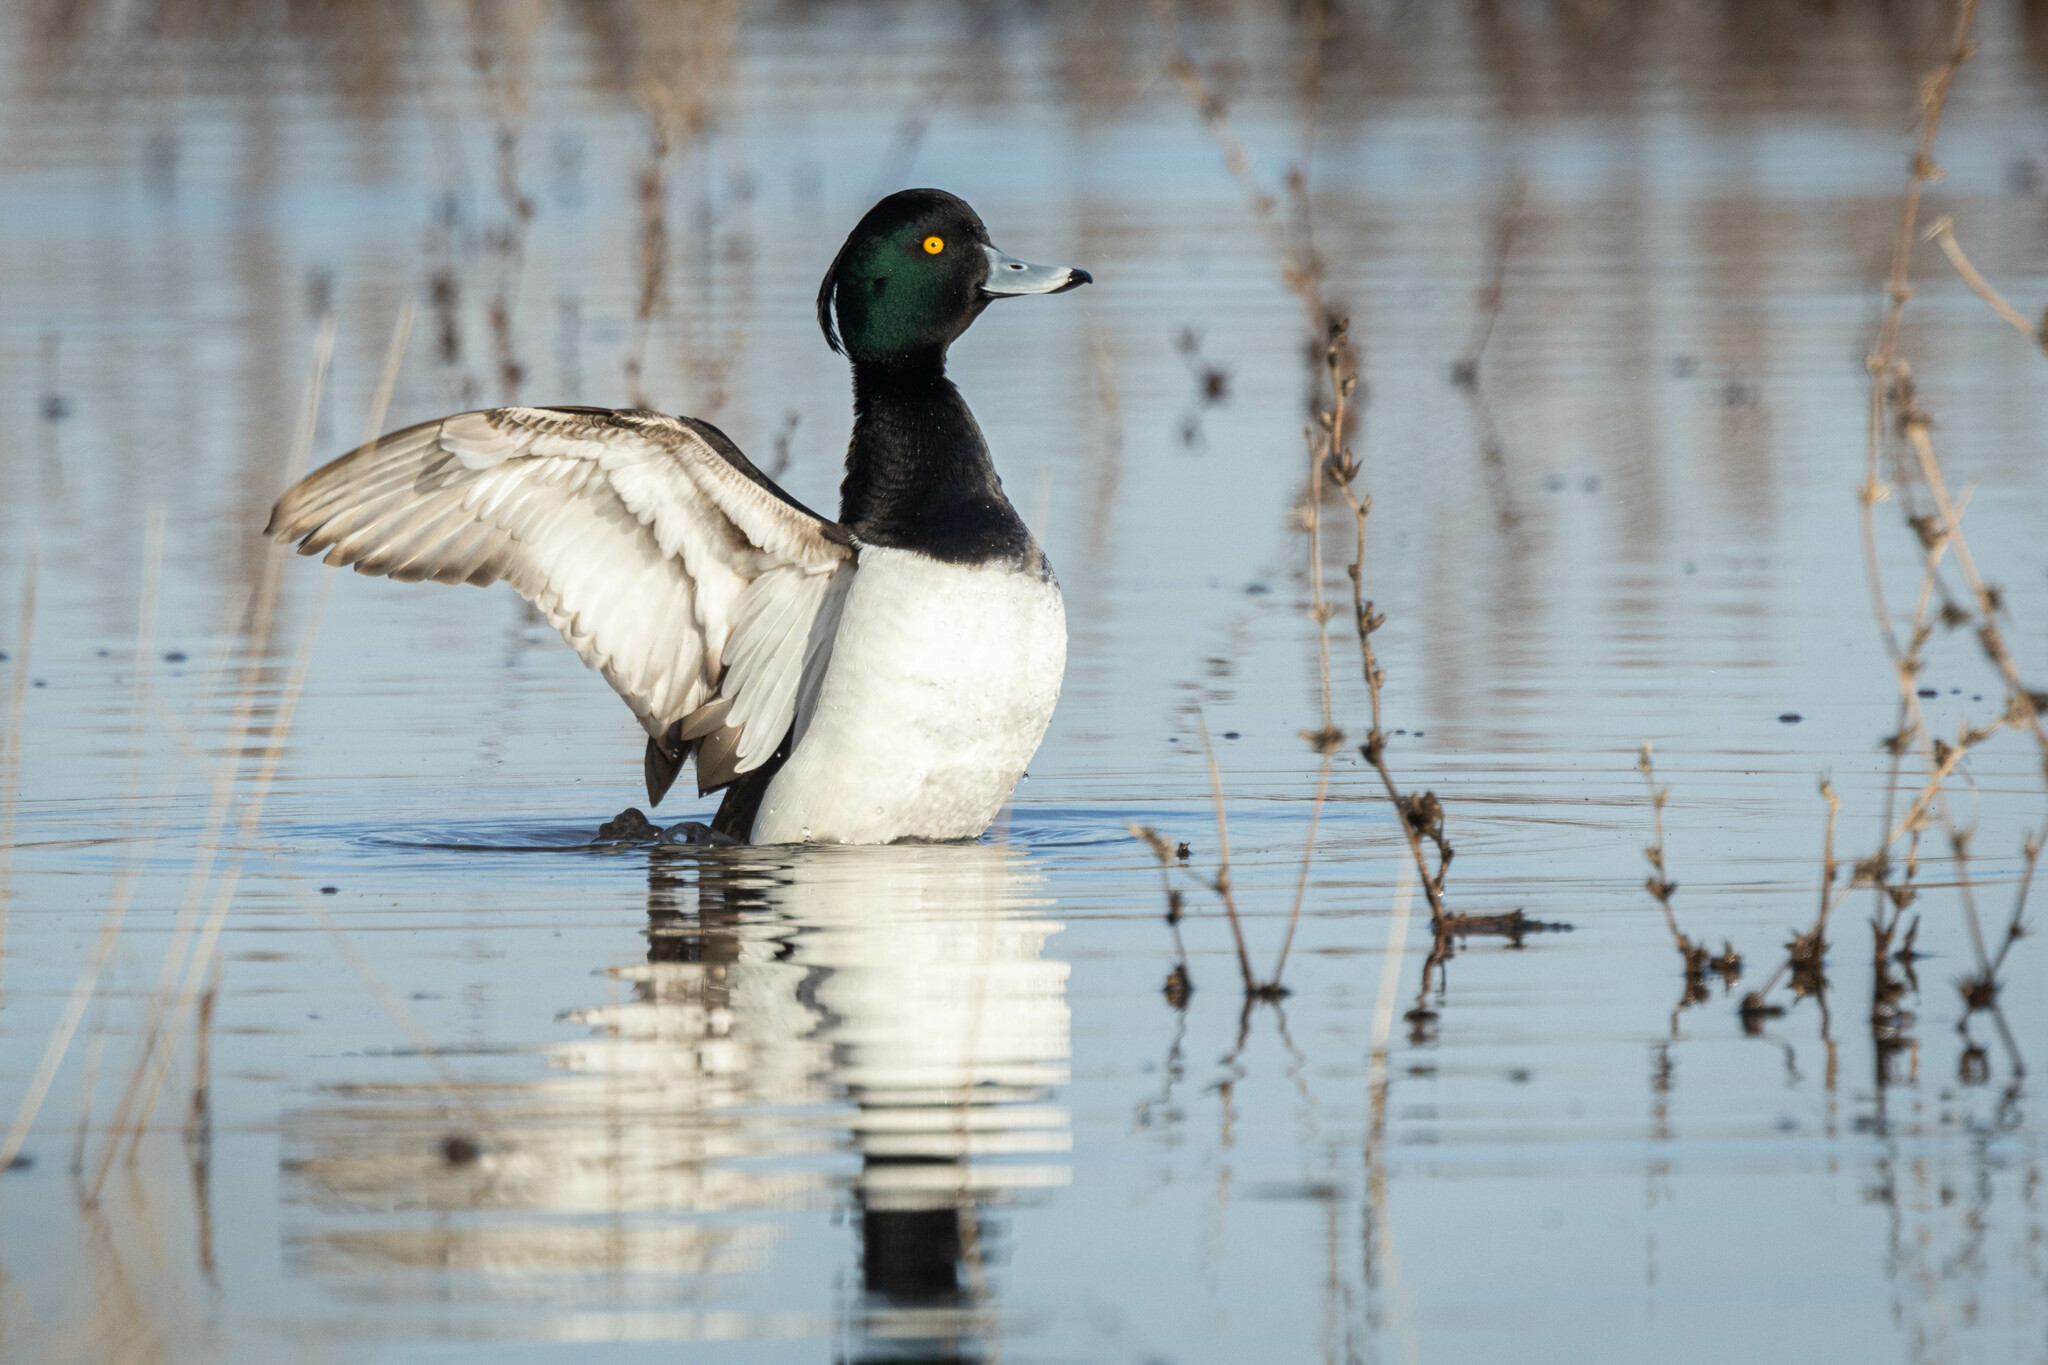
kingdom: Animalia
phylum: Chordata
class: Aves
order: Anseriformes
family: Anatidae
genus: Aythya
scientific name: Aythya fuligula
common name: Tufted duck
